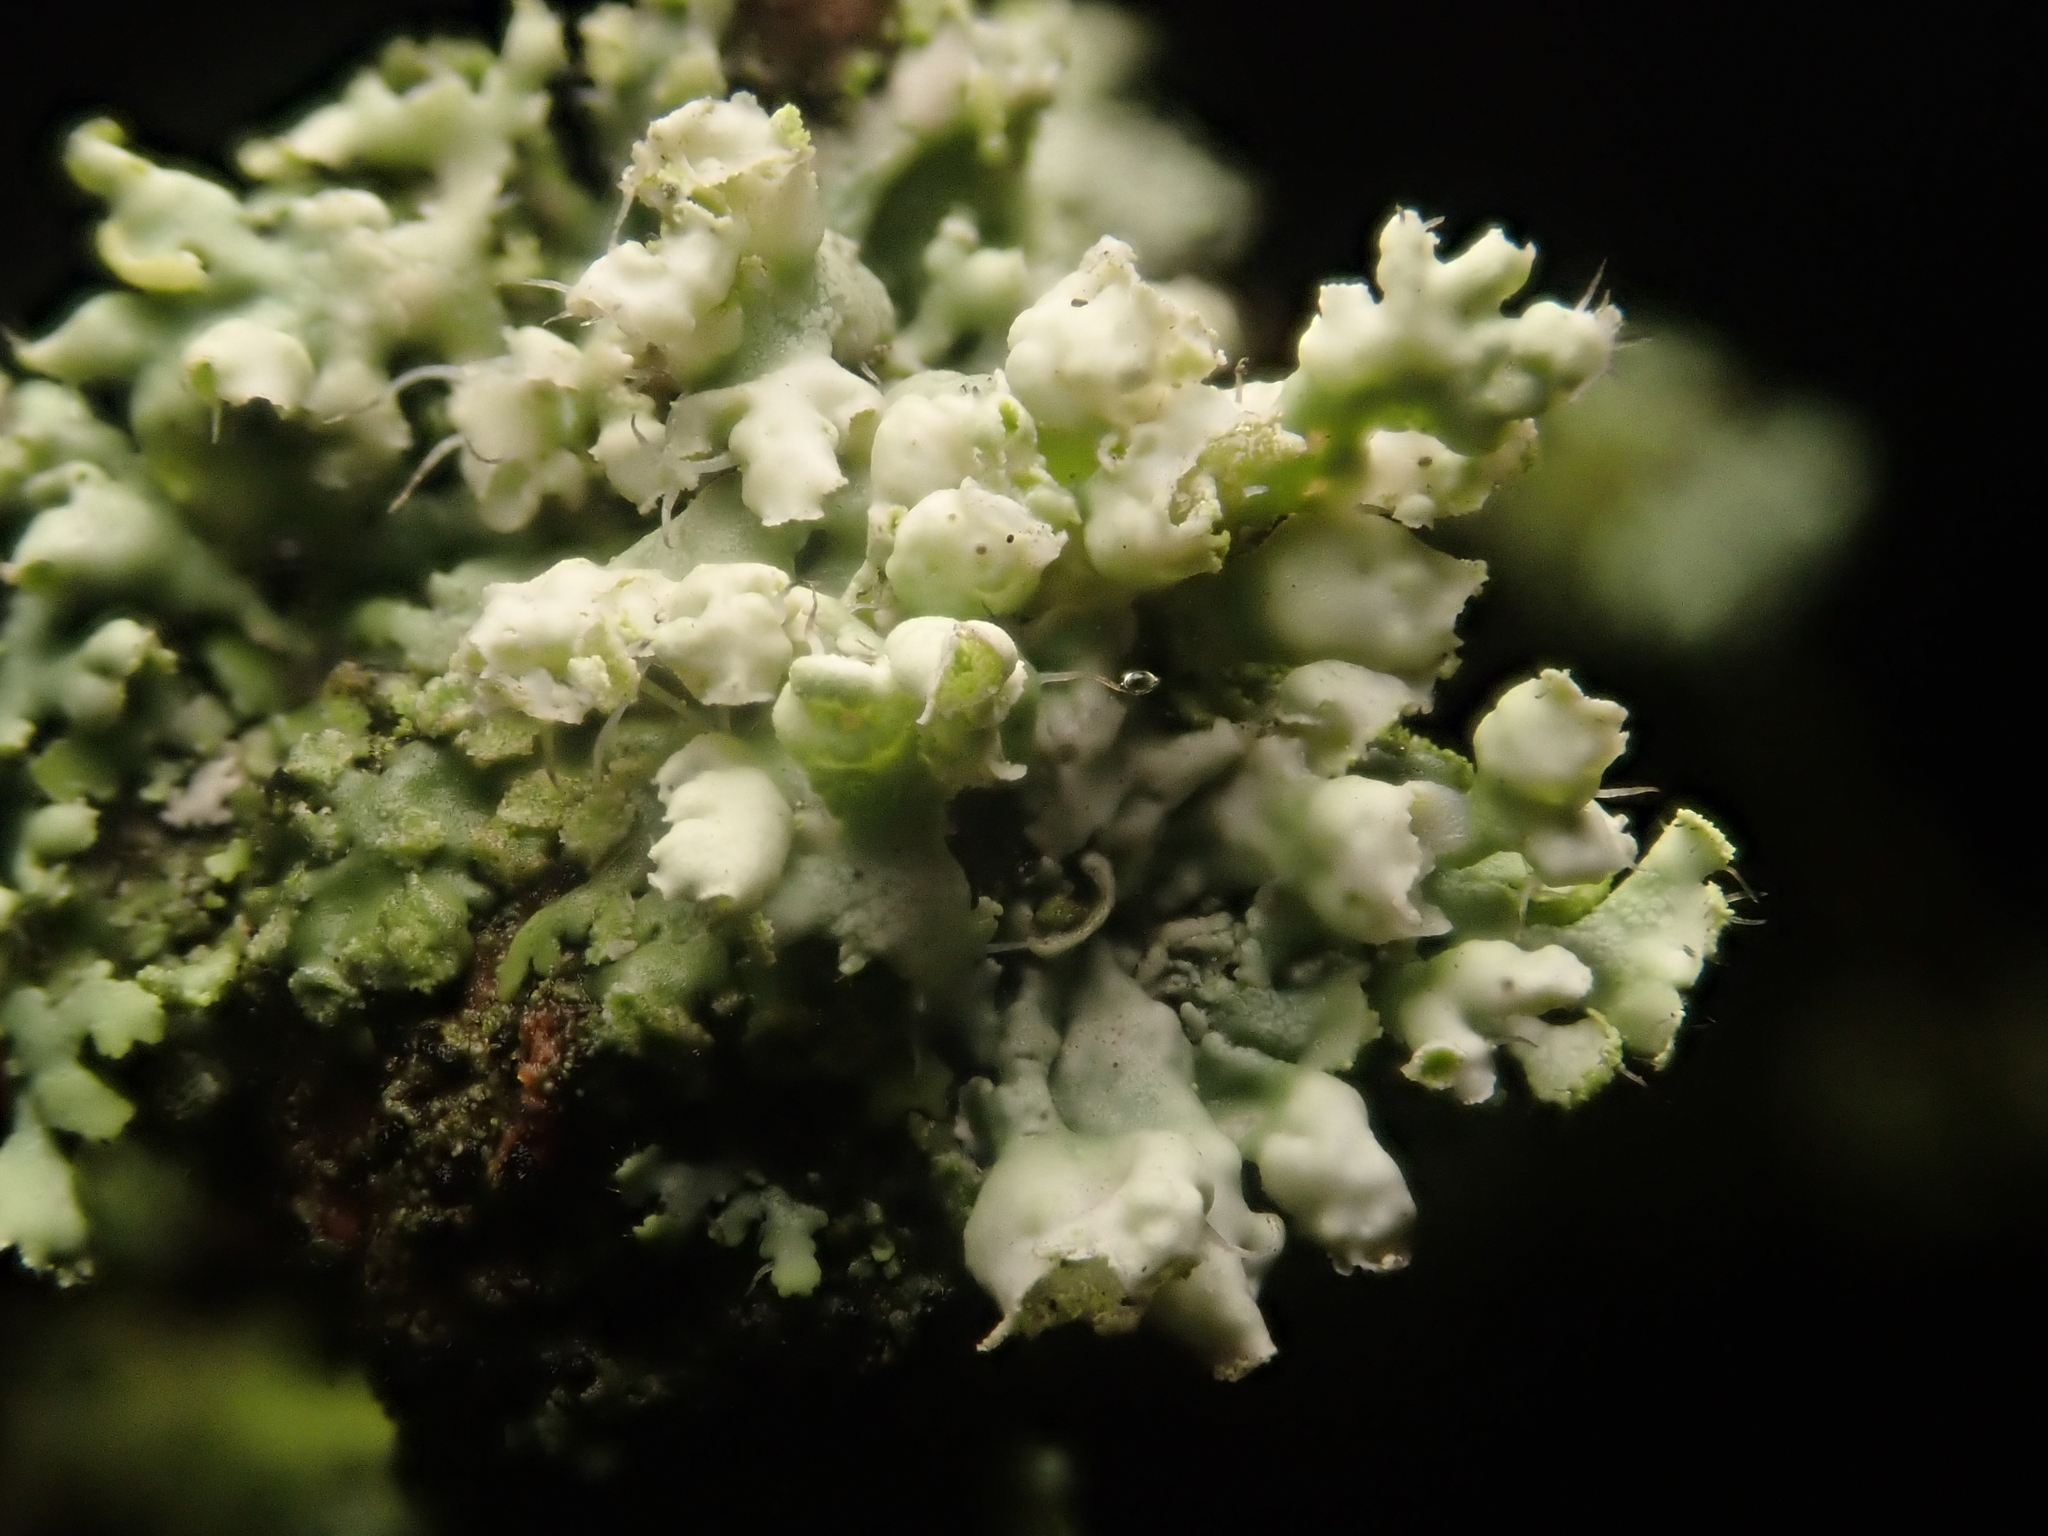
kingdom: Fungi
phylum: Ascomycota
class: Lecanoromycetes
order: Caliciales
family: Physciaceae
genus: Physcia
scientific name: Physcia adscendens
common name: Hooded rosette lichen
